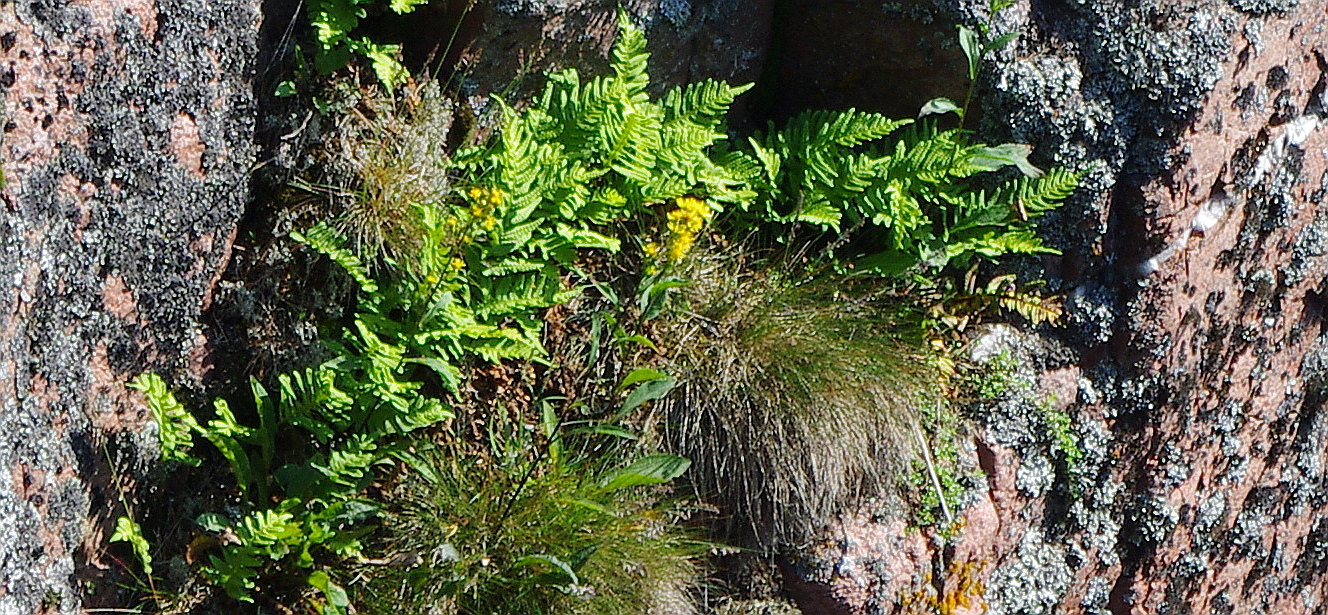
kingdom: Plantae
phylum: Tracheophyta
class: Polypodiopsida
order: Polypodiales
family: Polypodiaceae
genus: Polypodium
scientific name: Polypodium vulgare
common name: Common polypody
